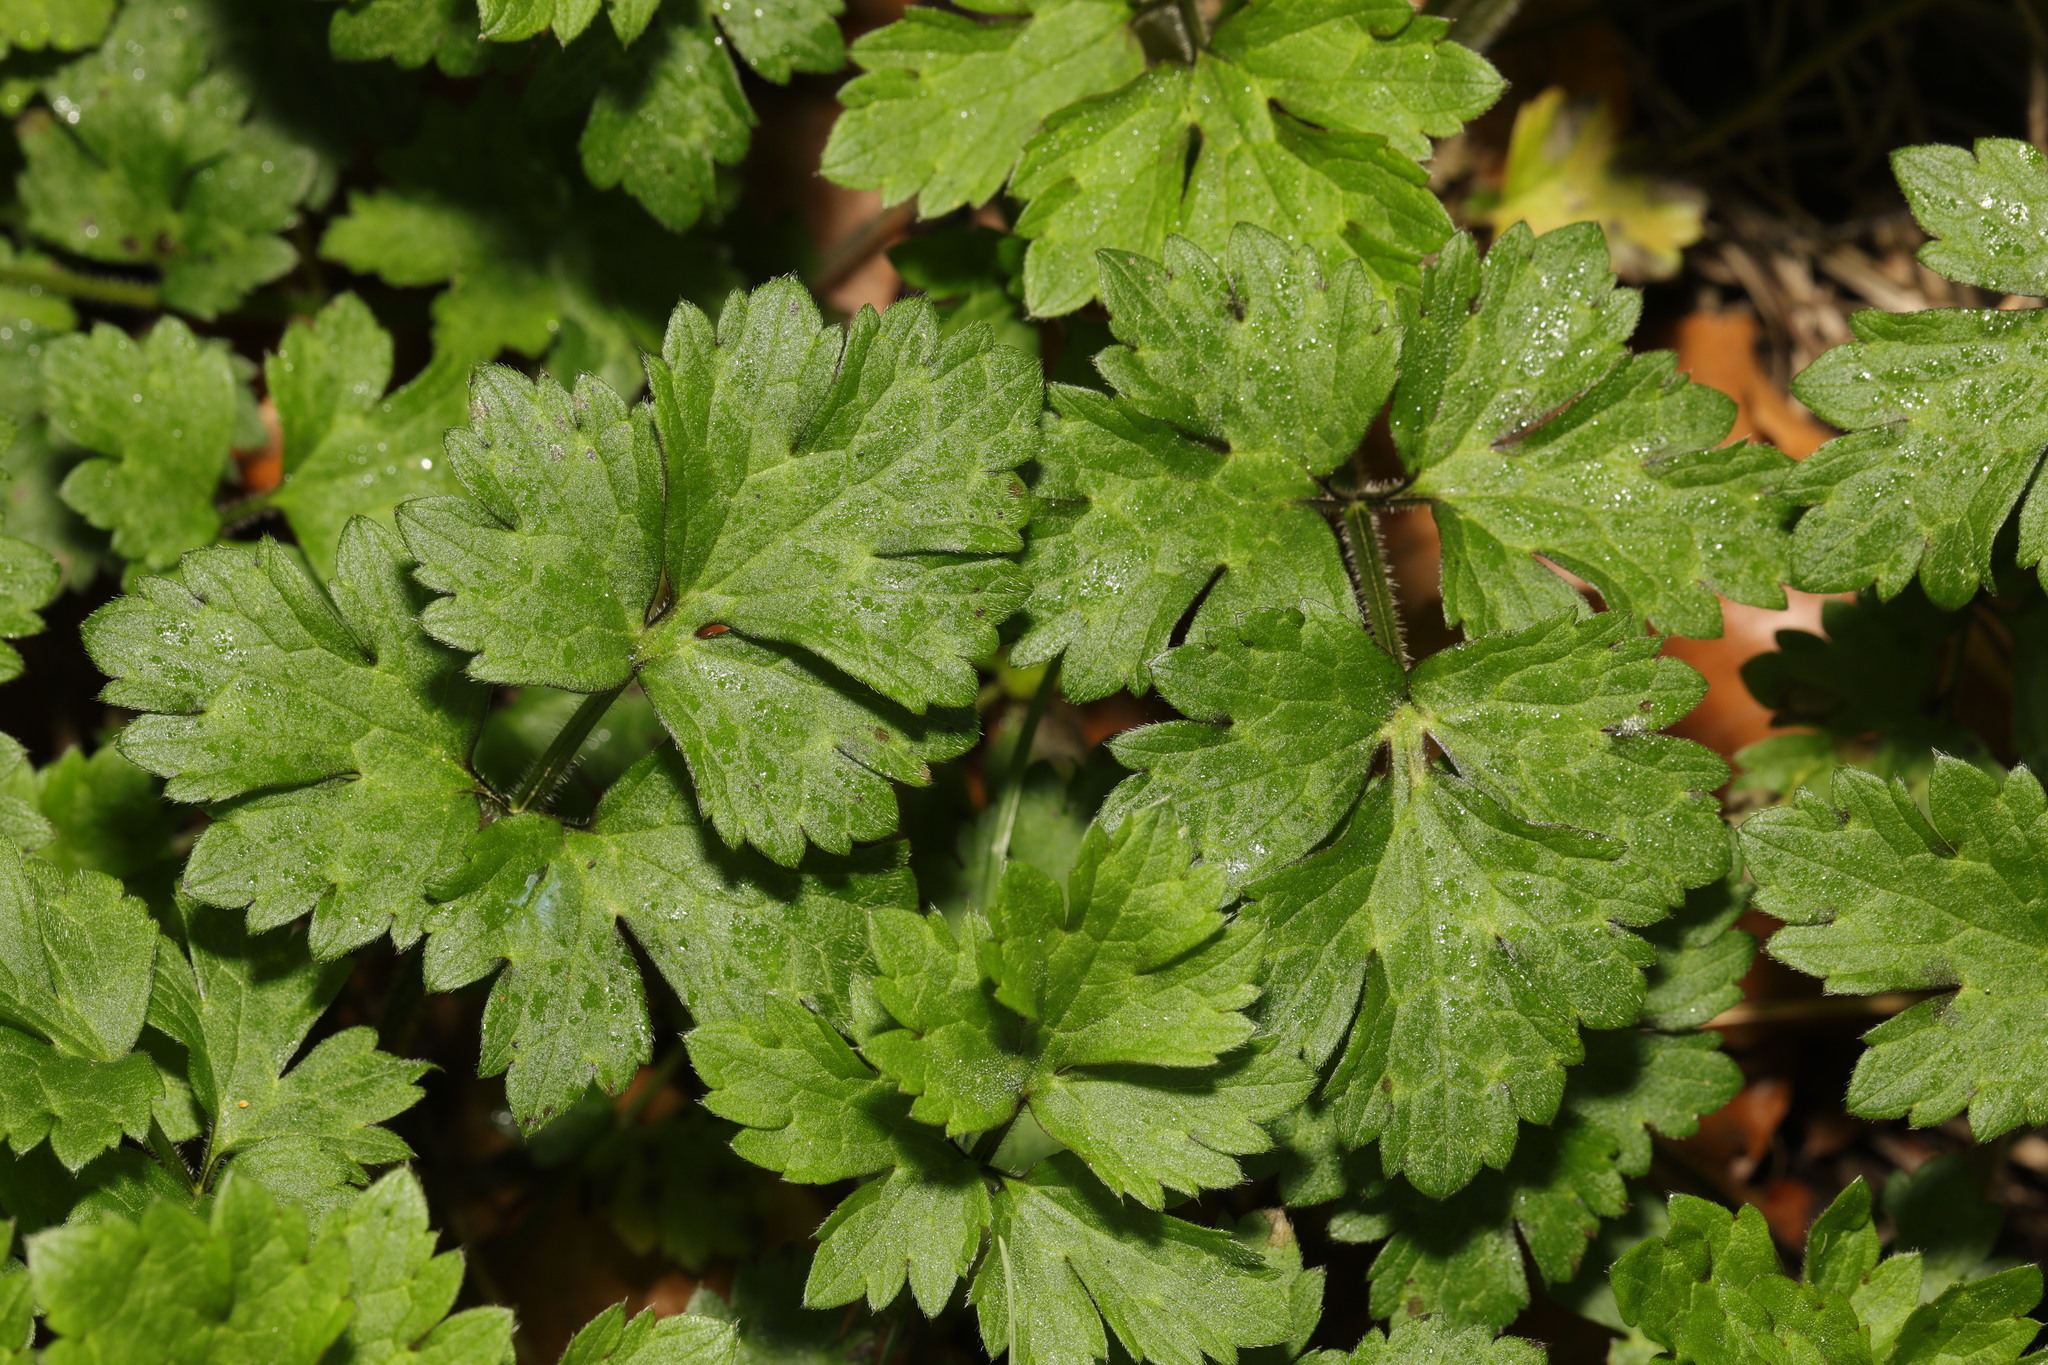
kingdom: Plantae
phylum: Tracheophyta
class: Magnoliopsida
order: Ranunculales
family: Ranunculaceae
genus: Ranunculus
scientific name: Ranunculus repens
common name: Creeping buttercup
